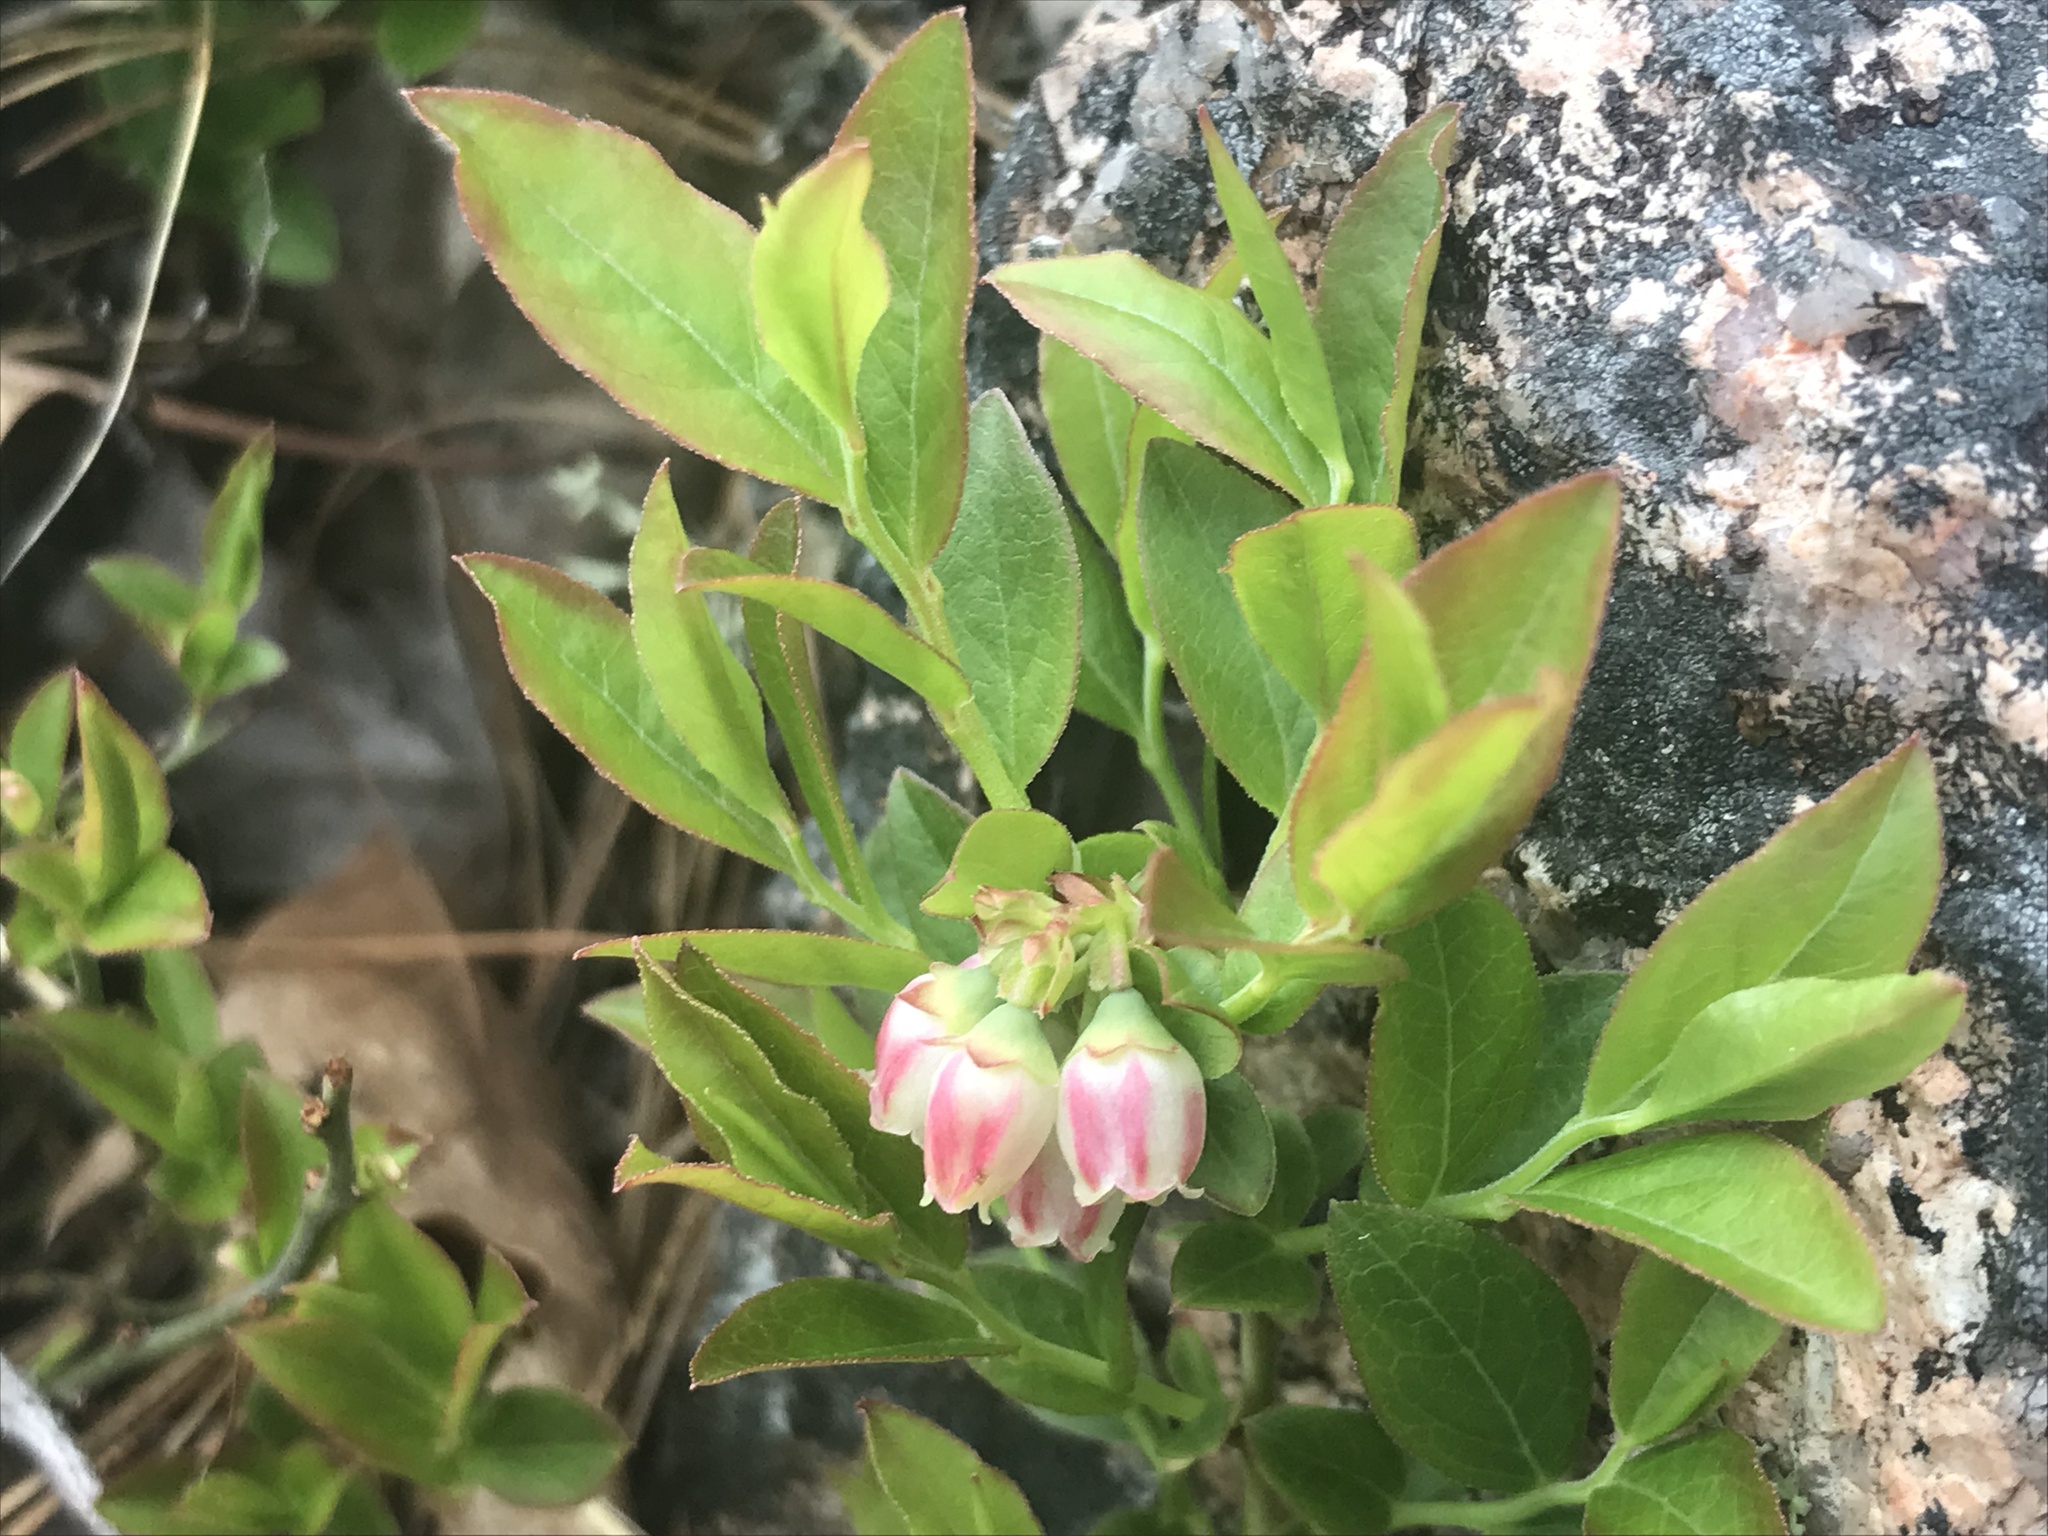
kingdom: Plantae
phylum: Tracheophyta
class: Magnoliopsida
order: Ericales
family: Ericaceae
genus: Vaccinium
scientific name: Vaccinium angustifolium
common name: Early lowbush blueberry
